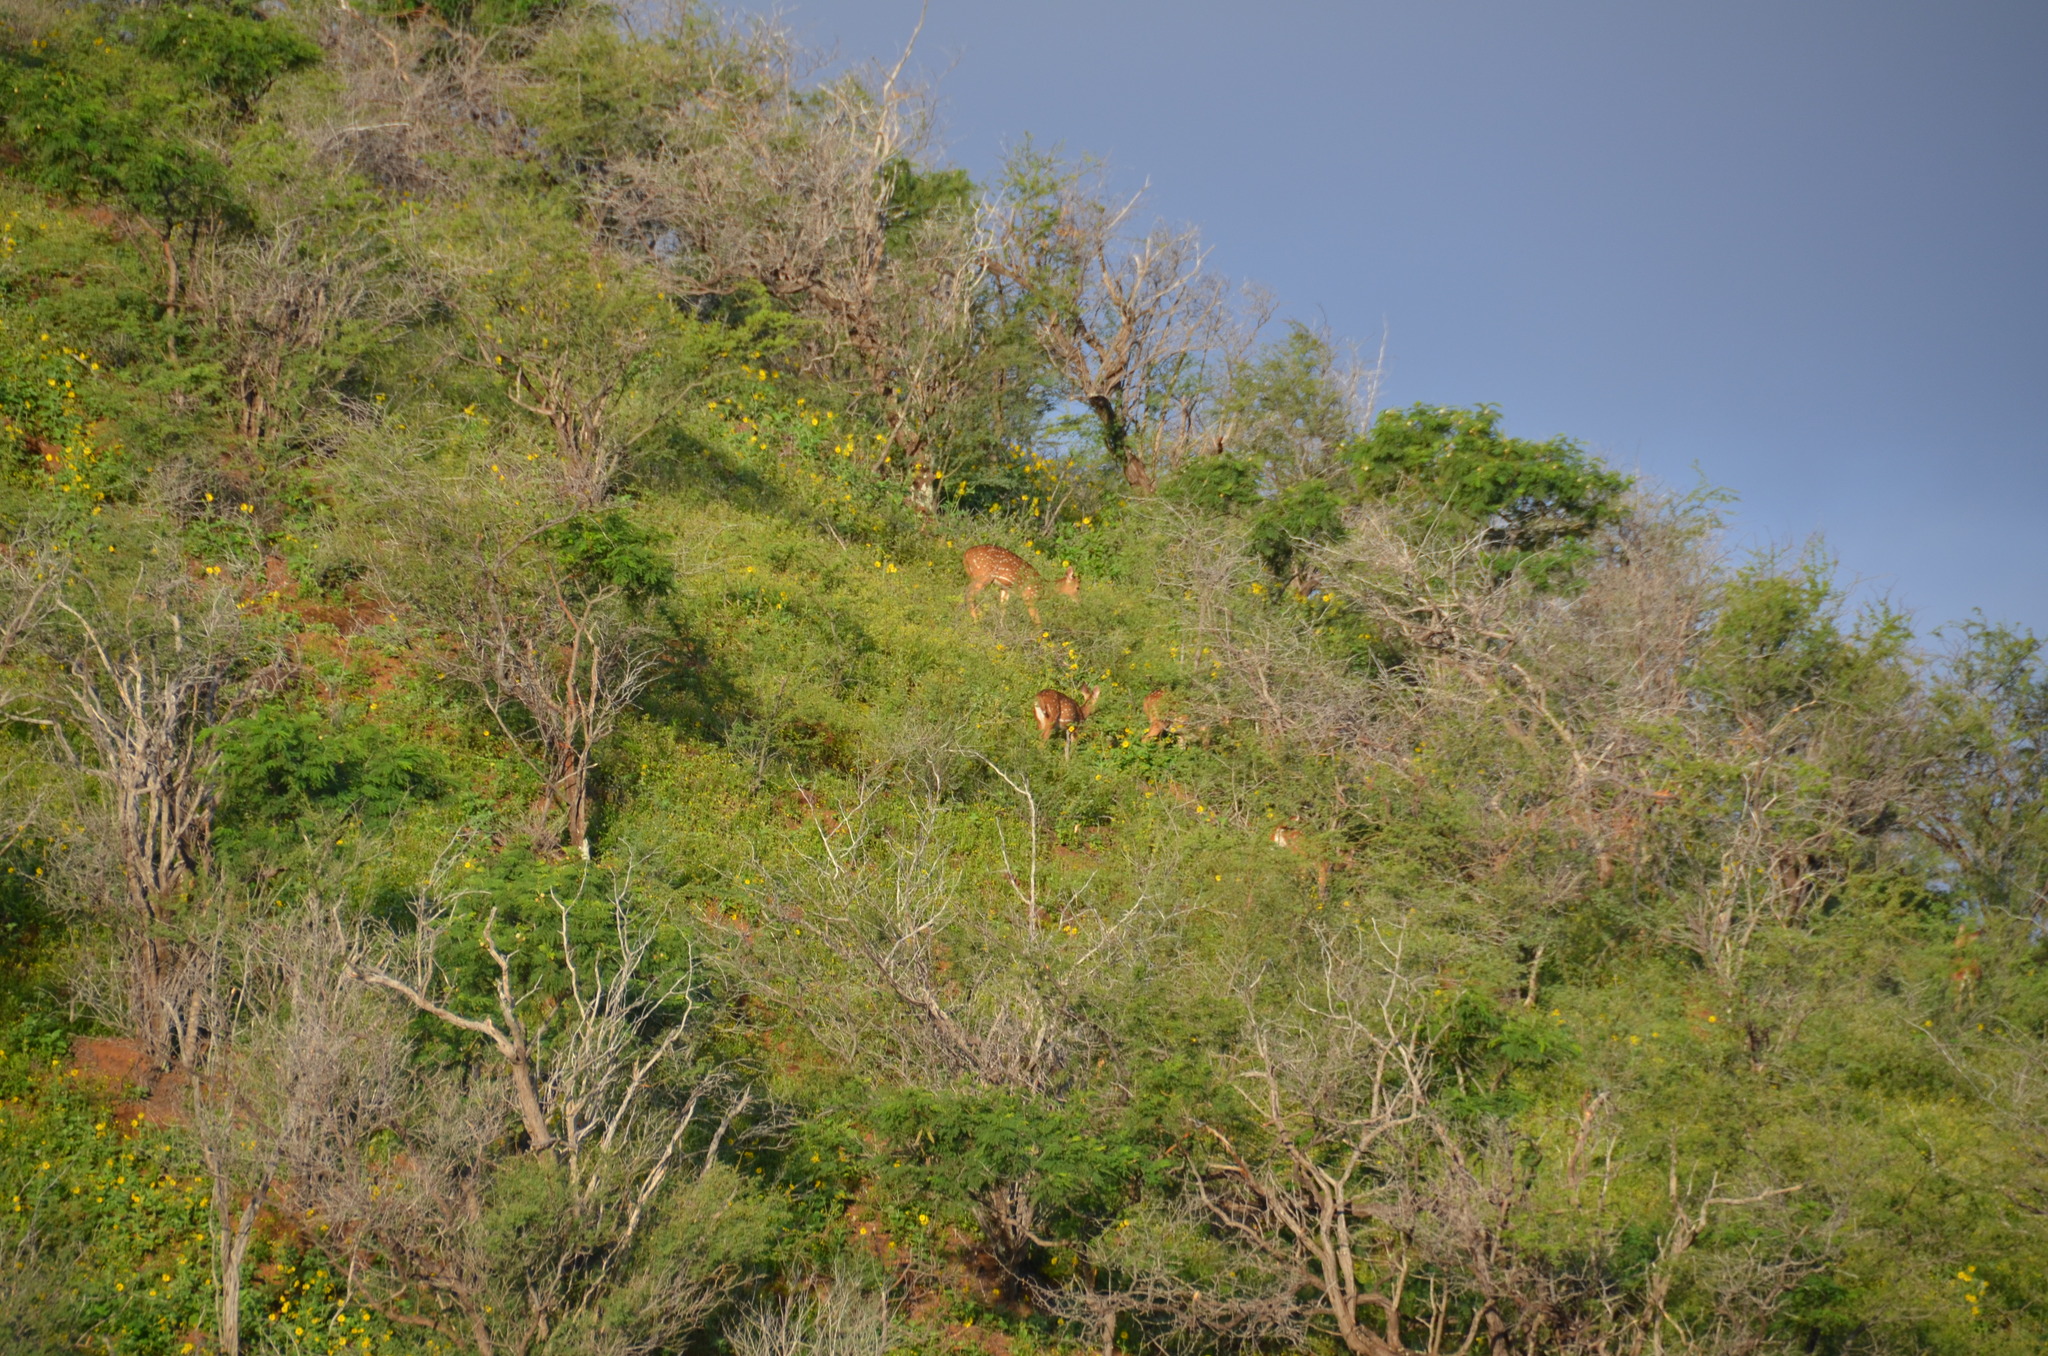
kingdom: Animalia
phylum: Chordata
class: Mammalia
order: Artiodactyla
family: Cervidae
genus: Axis
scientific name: Axis axis
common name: Chital
